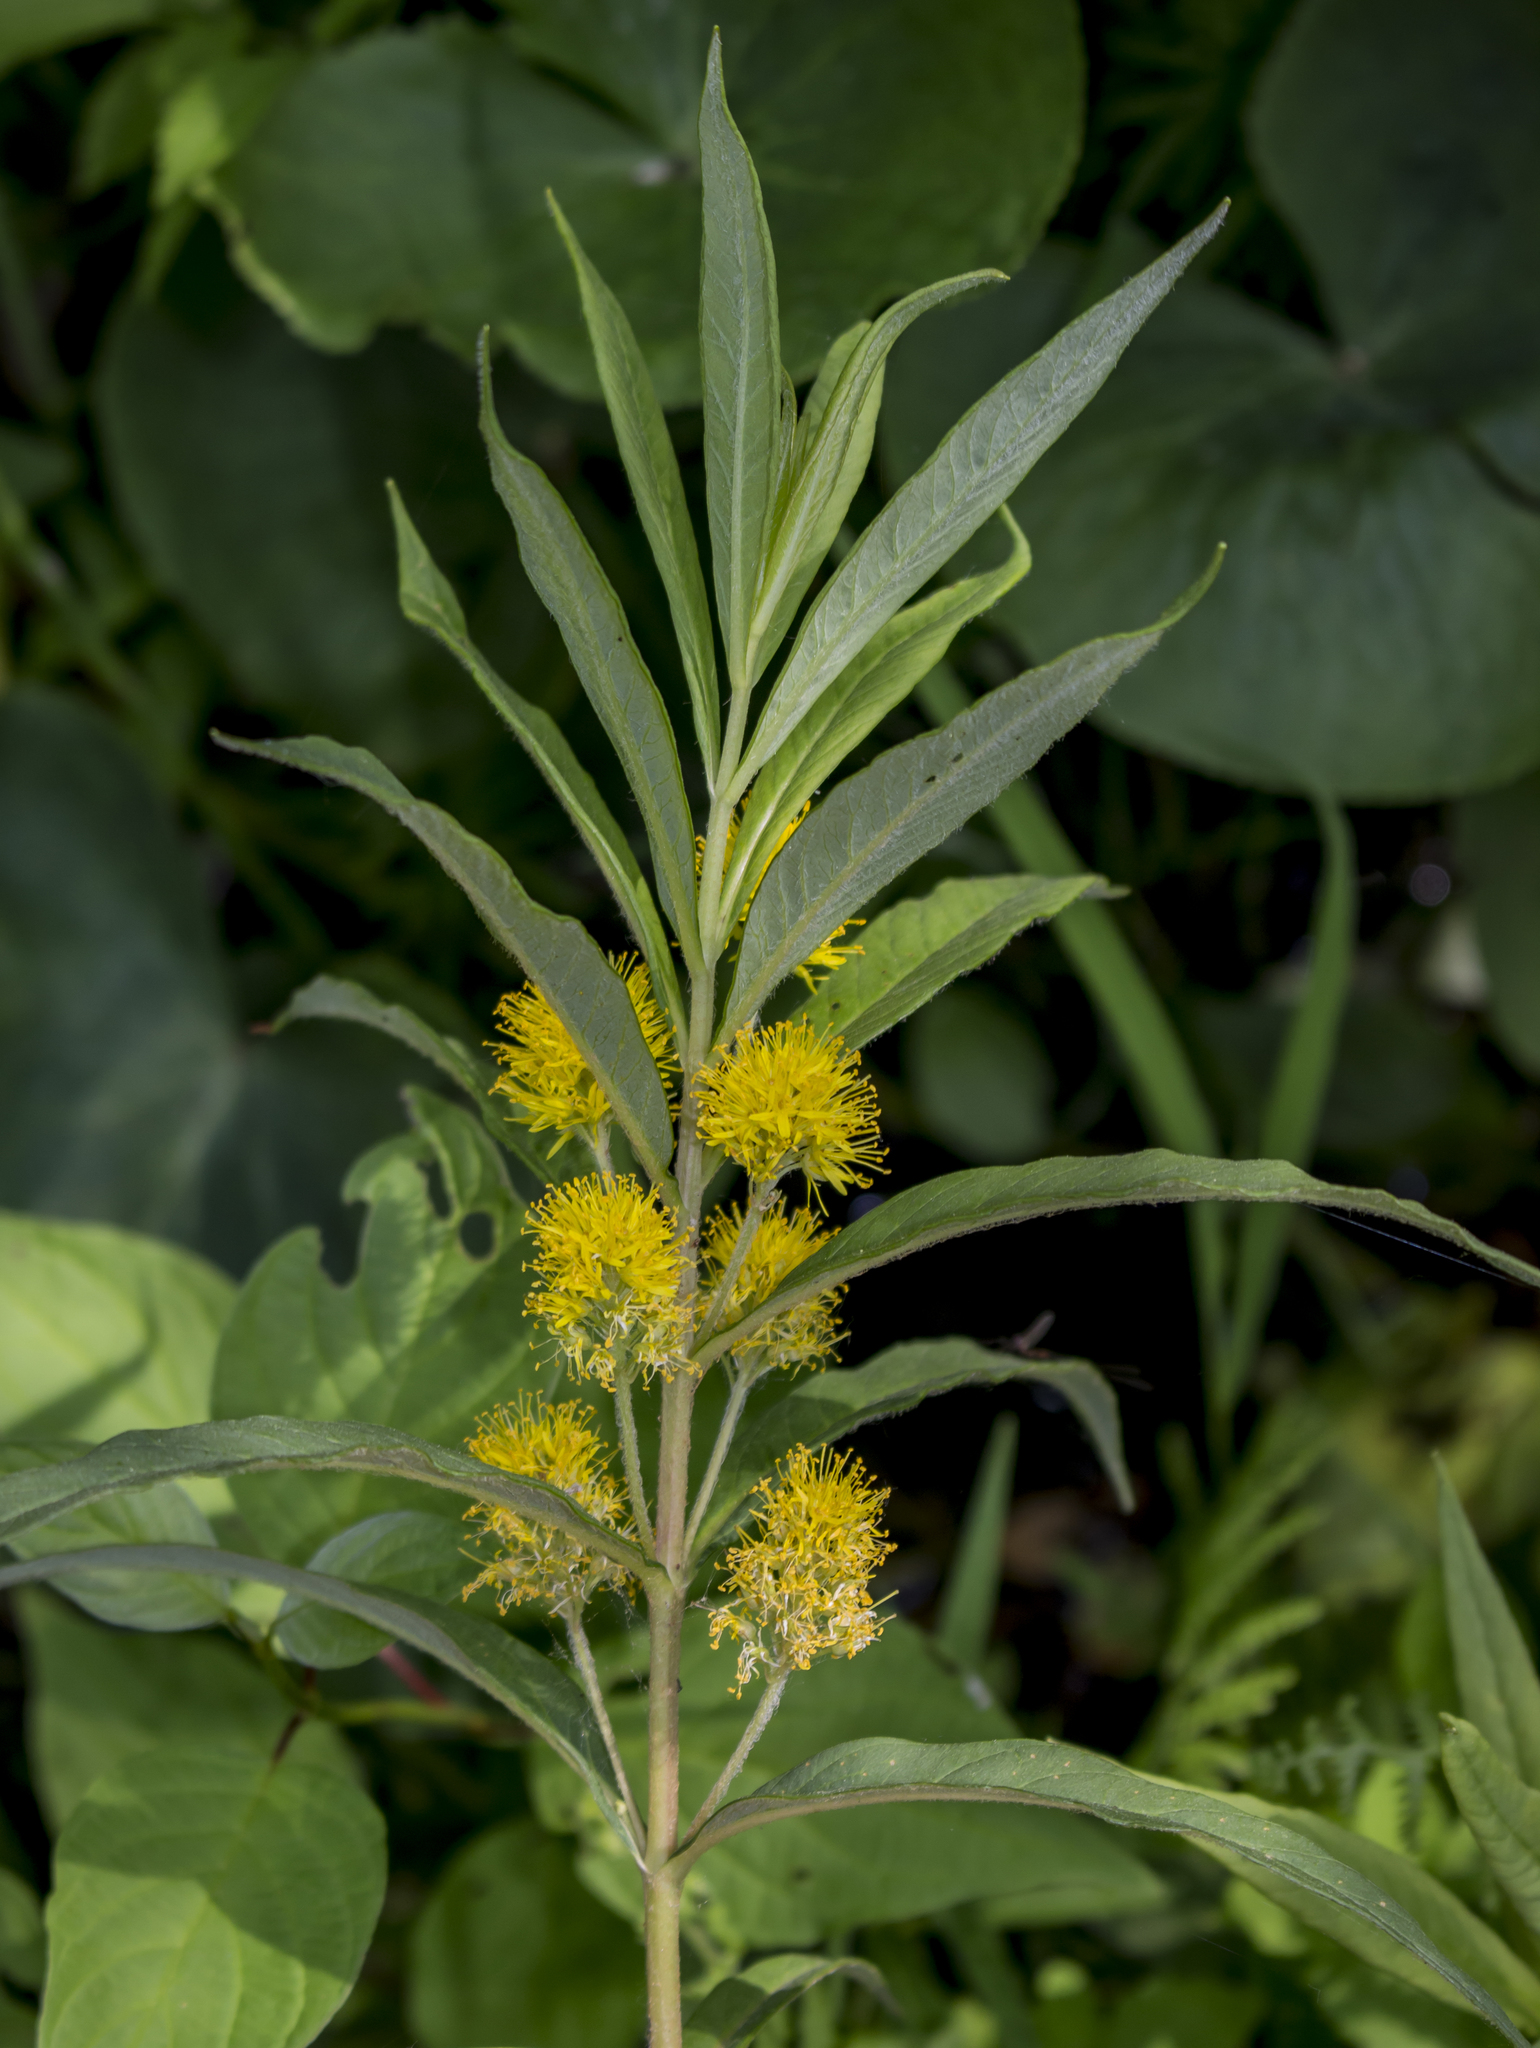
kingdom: Plantae
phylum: Tracheophyta
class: Magnoliopsida
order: Ericales
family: Primulaceae
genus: Lysimachia
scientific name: Lysimachia thyrsiflora
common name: Tufted loosestrife
